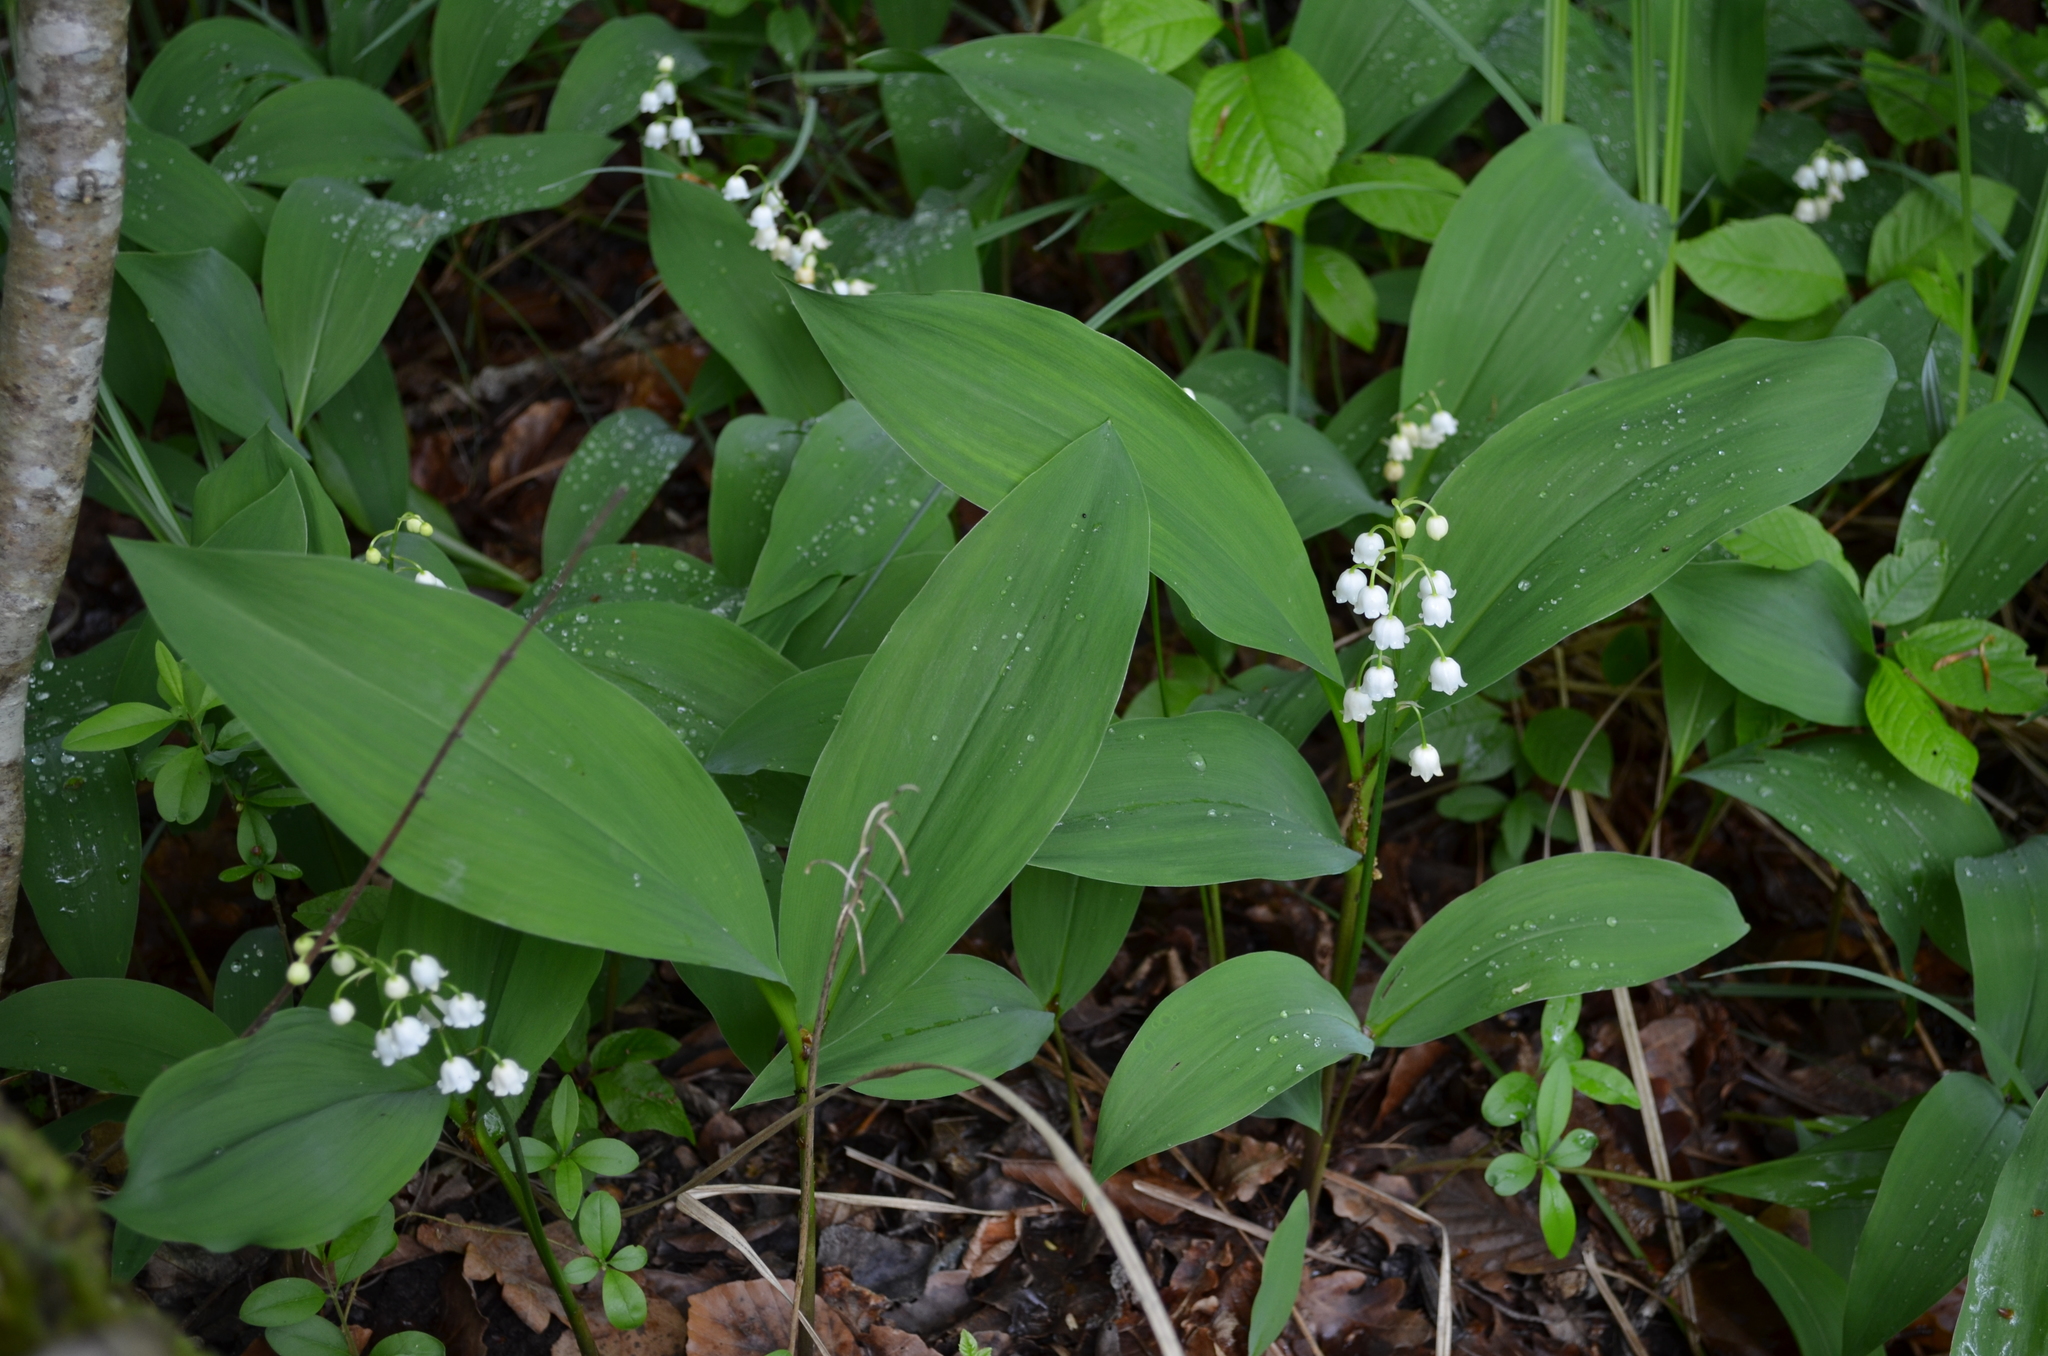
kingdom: Plantae
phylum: Tracheophyta
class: Liliopsida
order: Asparagales
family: Asparagaceae
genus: Convallaria
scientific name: Convallaria majalis
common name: Lily-of-the-valley
